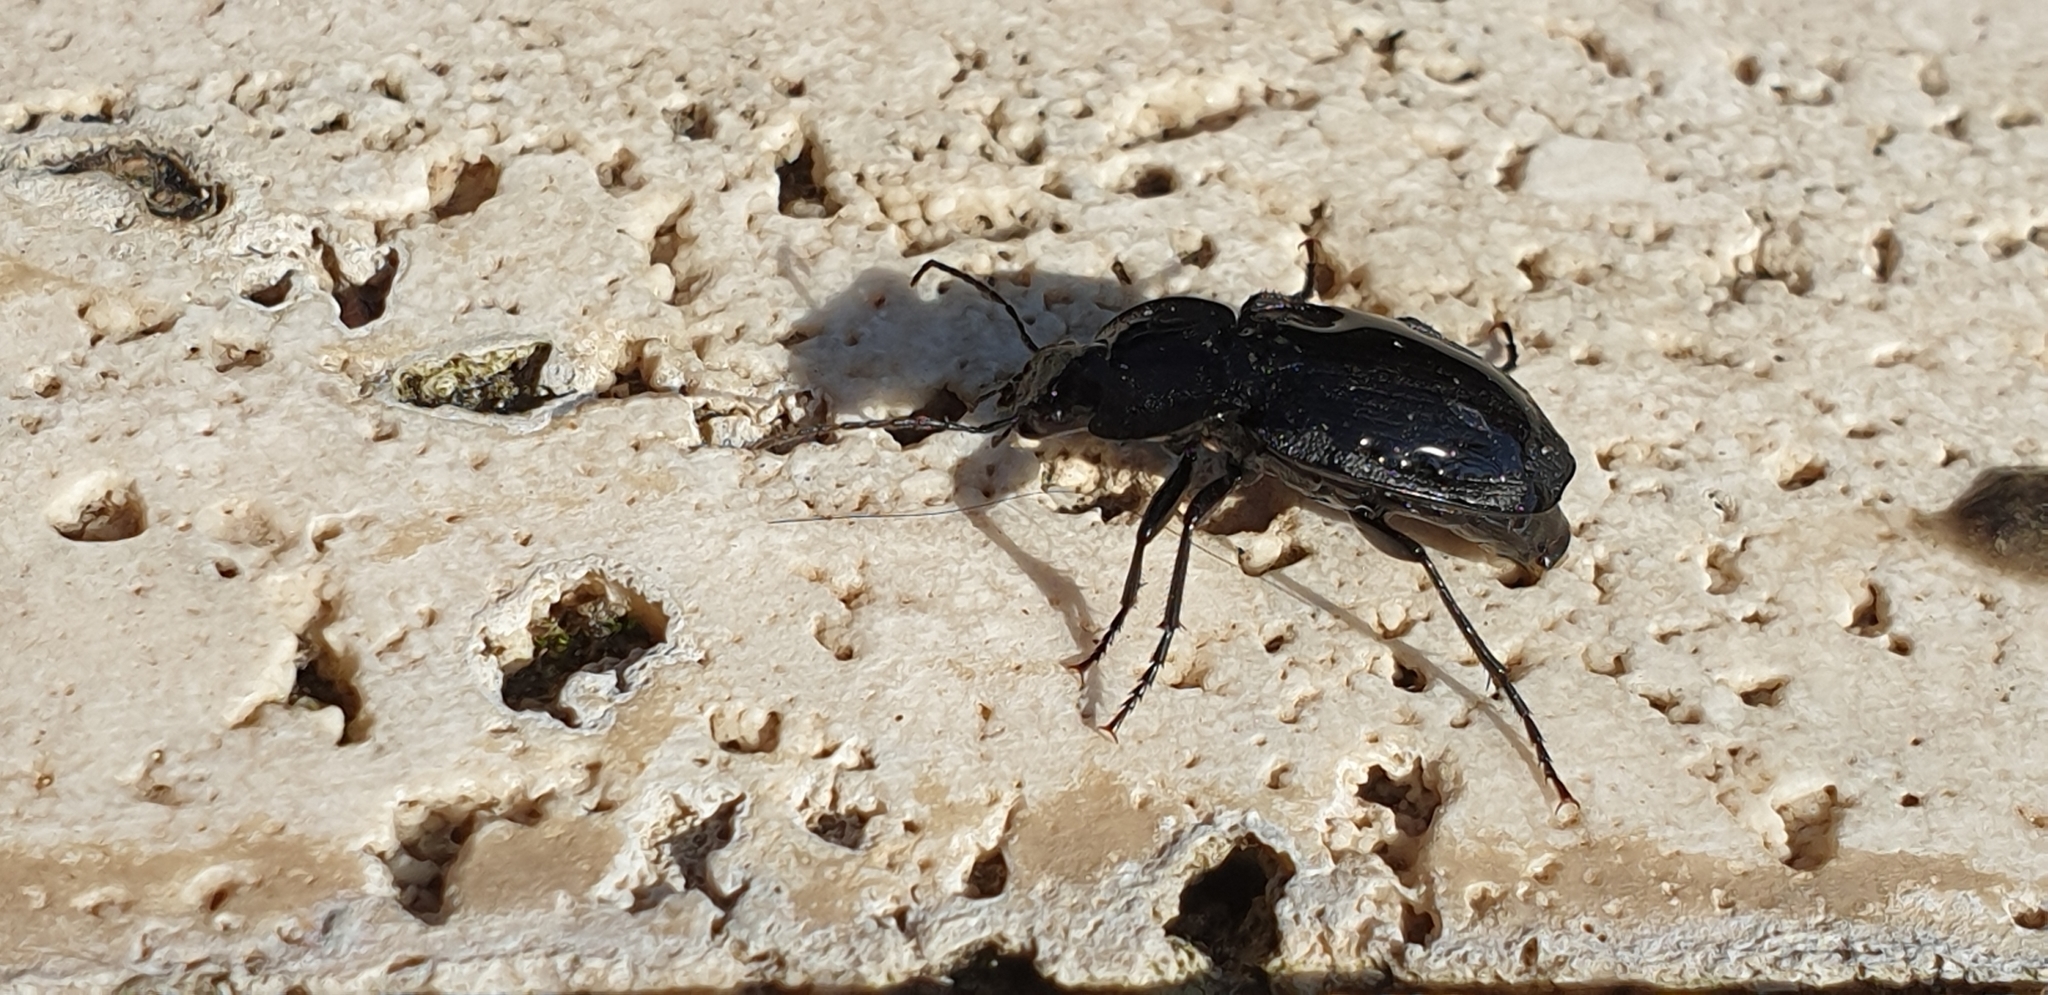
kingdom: Animalia
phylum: Arthropoda
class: Insecta
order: Coleoptera
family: Carabidae
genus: Licinus
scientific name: Licinus punctatulus
